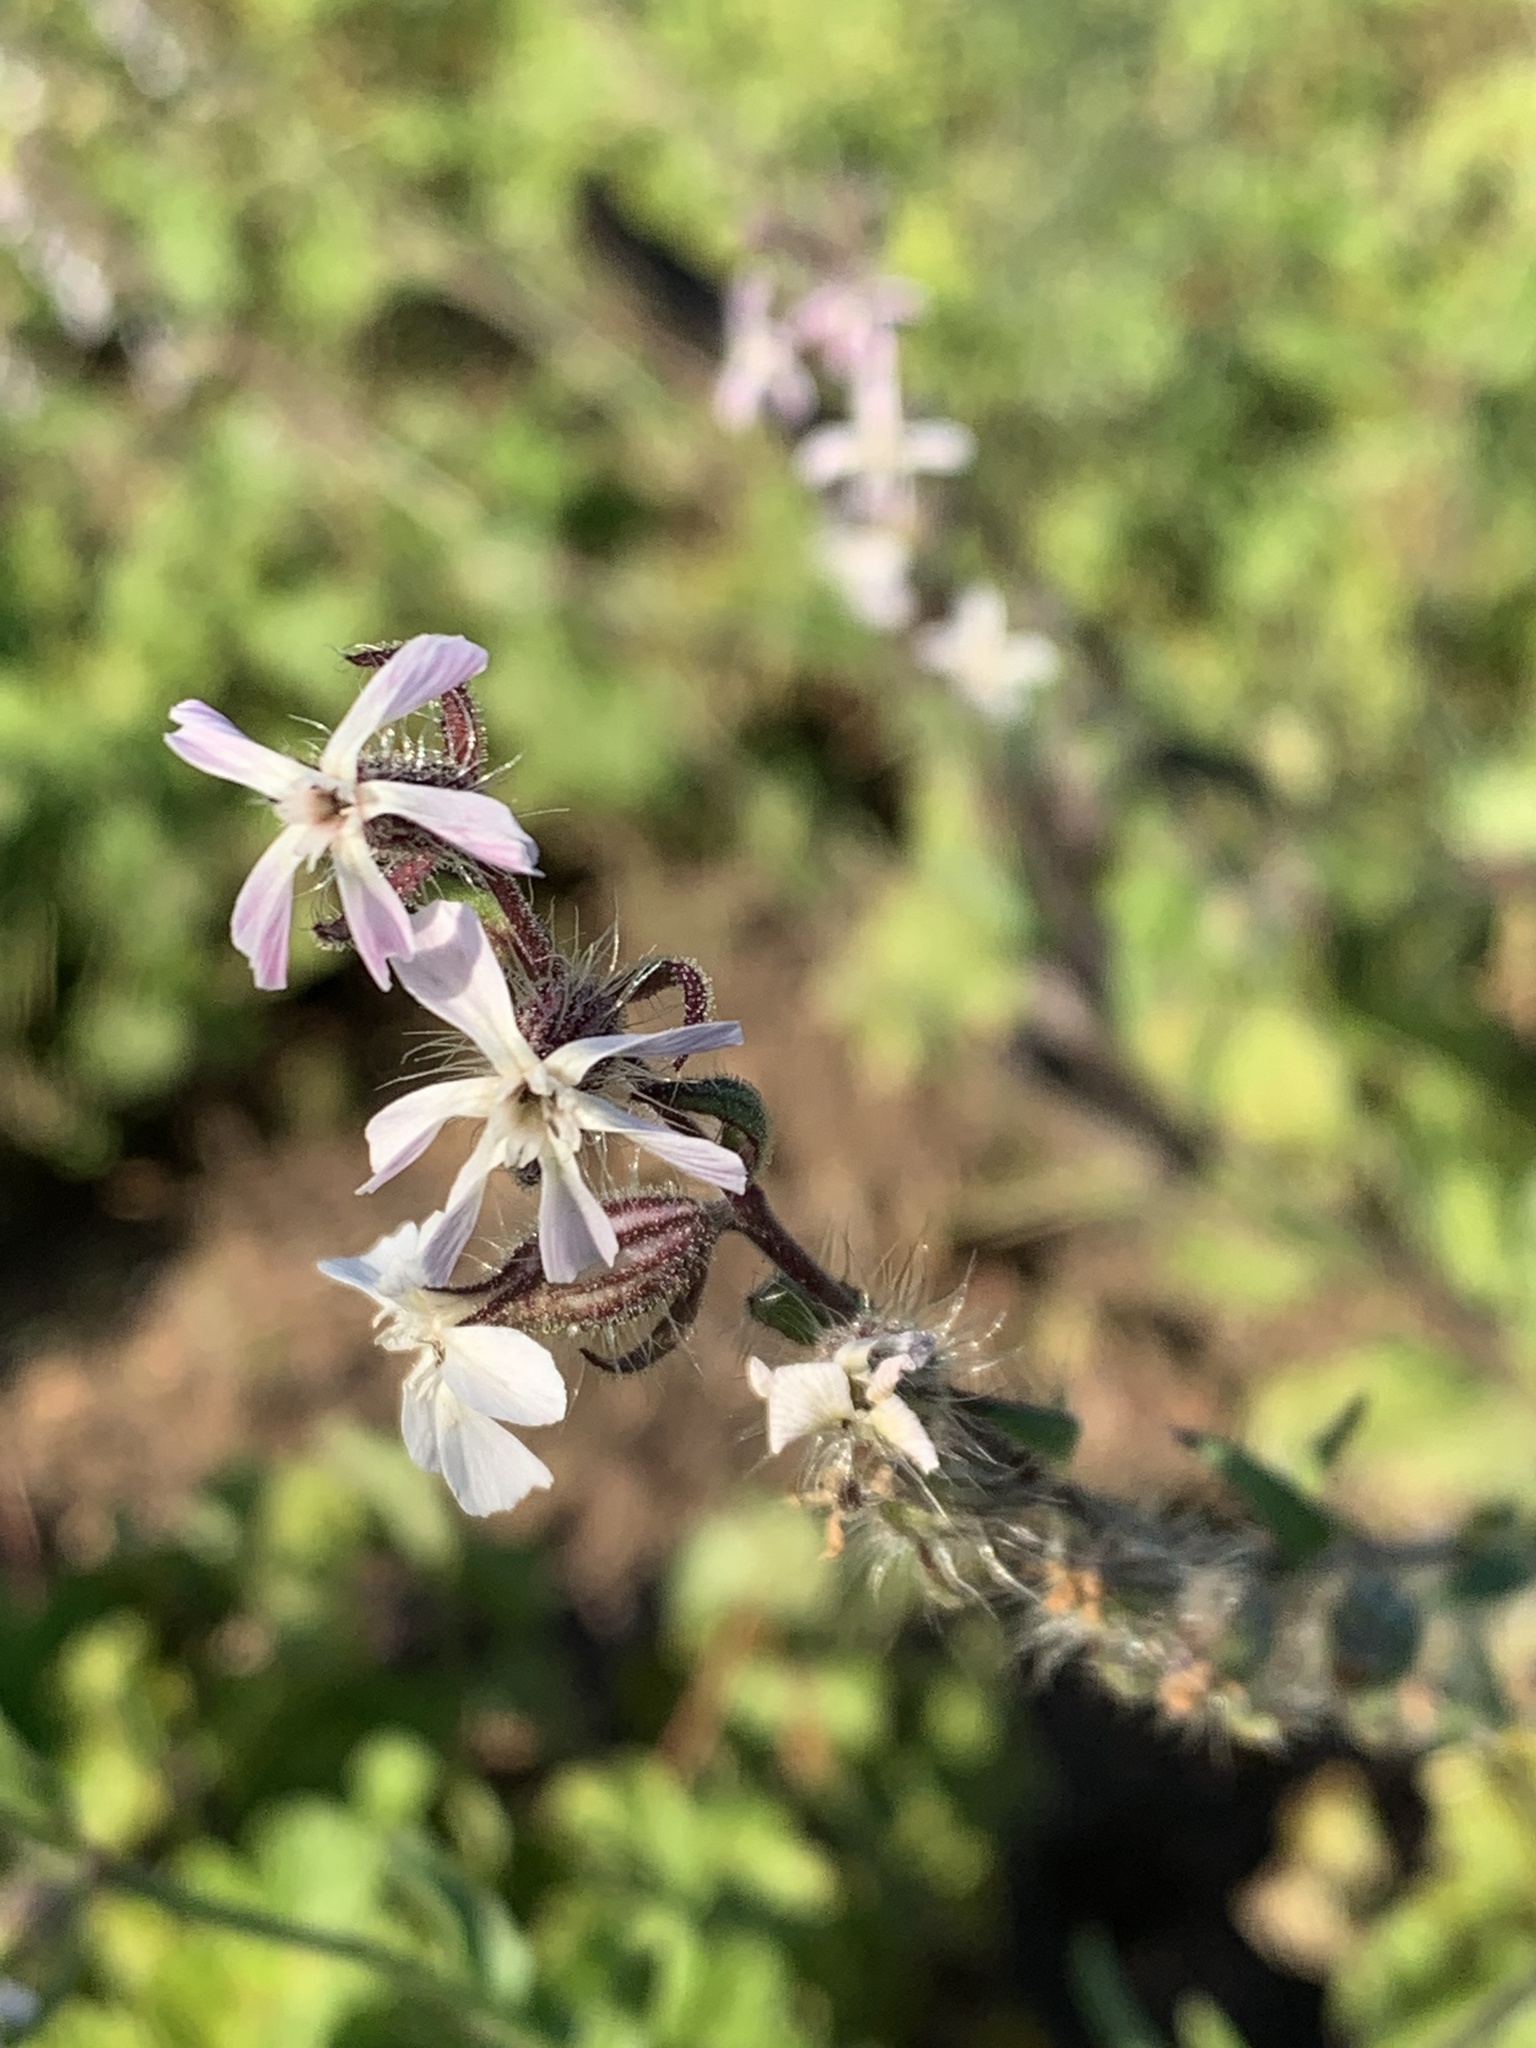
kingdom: Plantae
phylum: Tracheophyta
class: Magnoliopsida
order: Caryophyllales
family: Caryophyllaceae
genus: Silene
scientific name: Silene gallica
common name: Small-flowered catchfly
